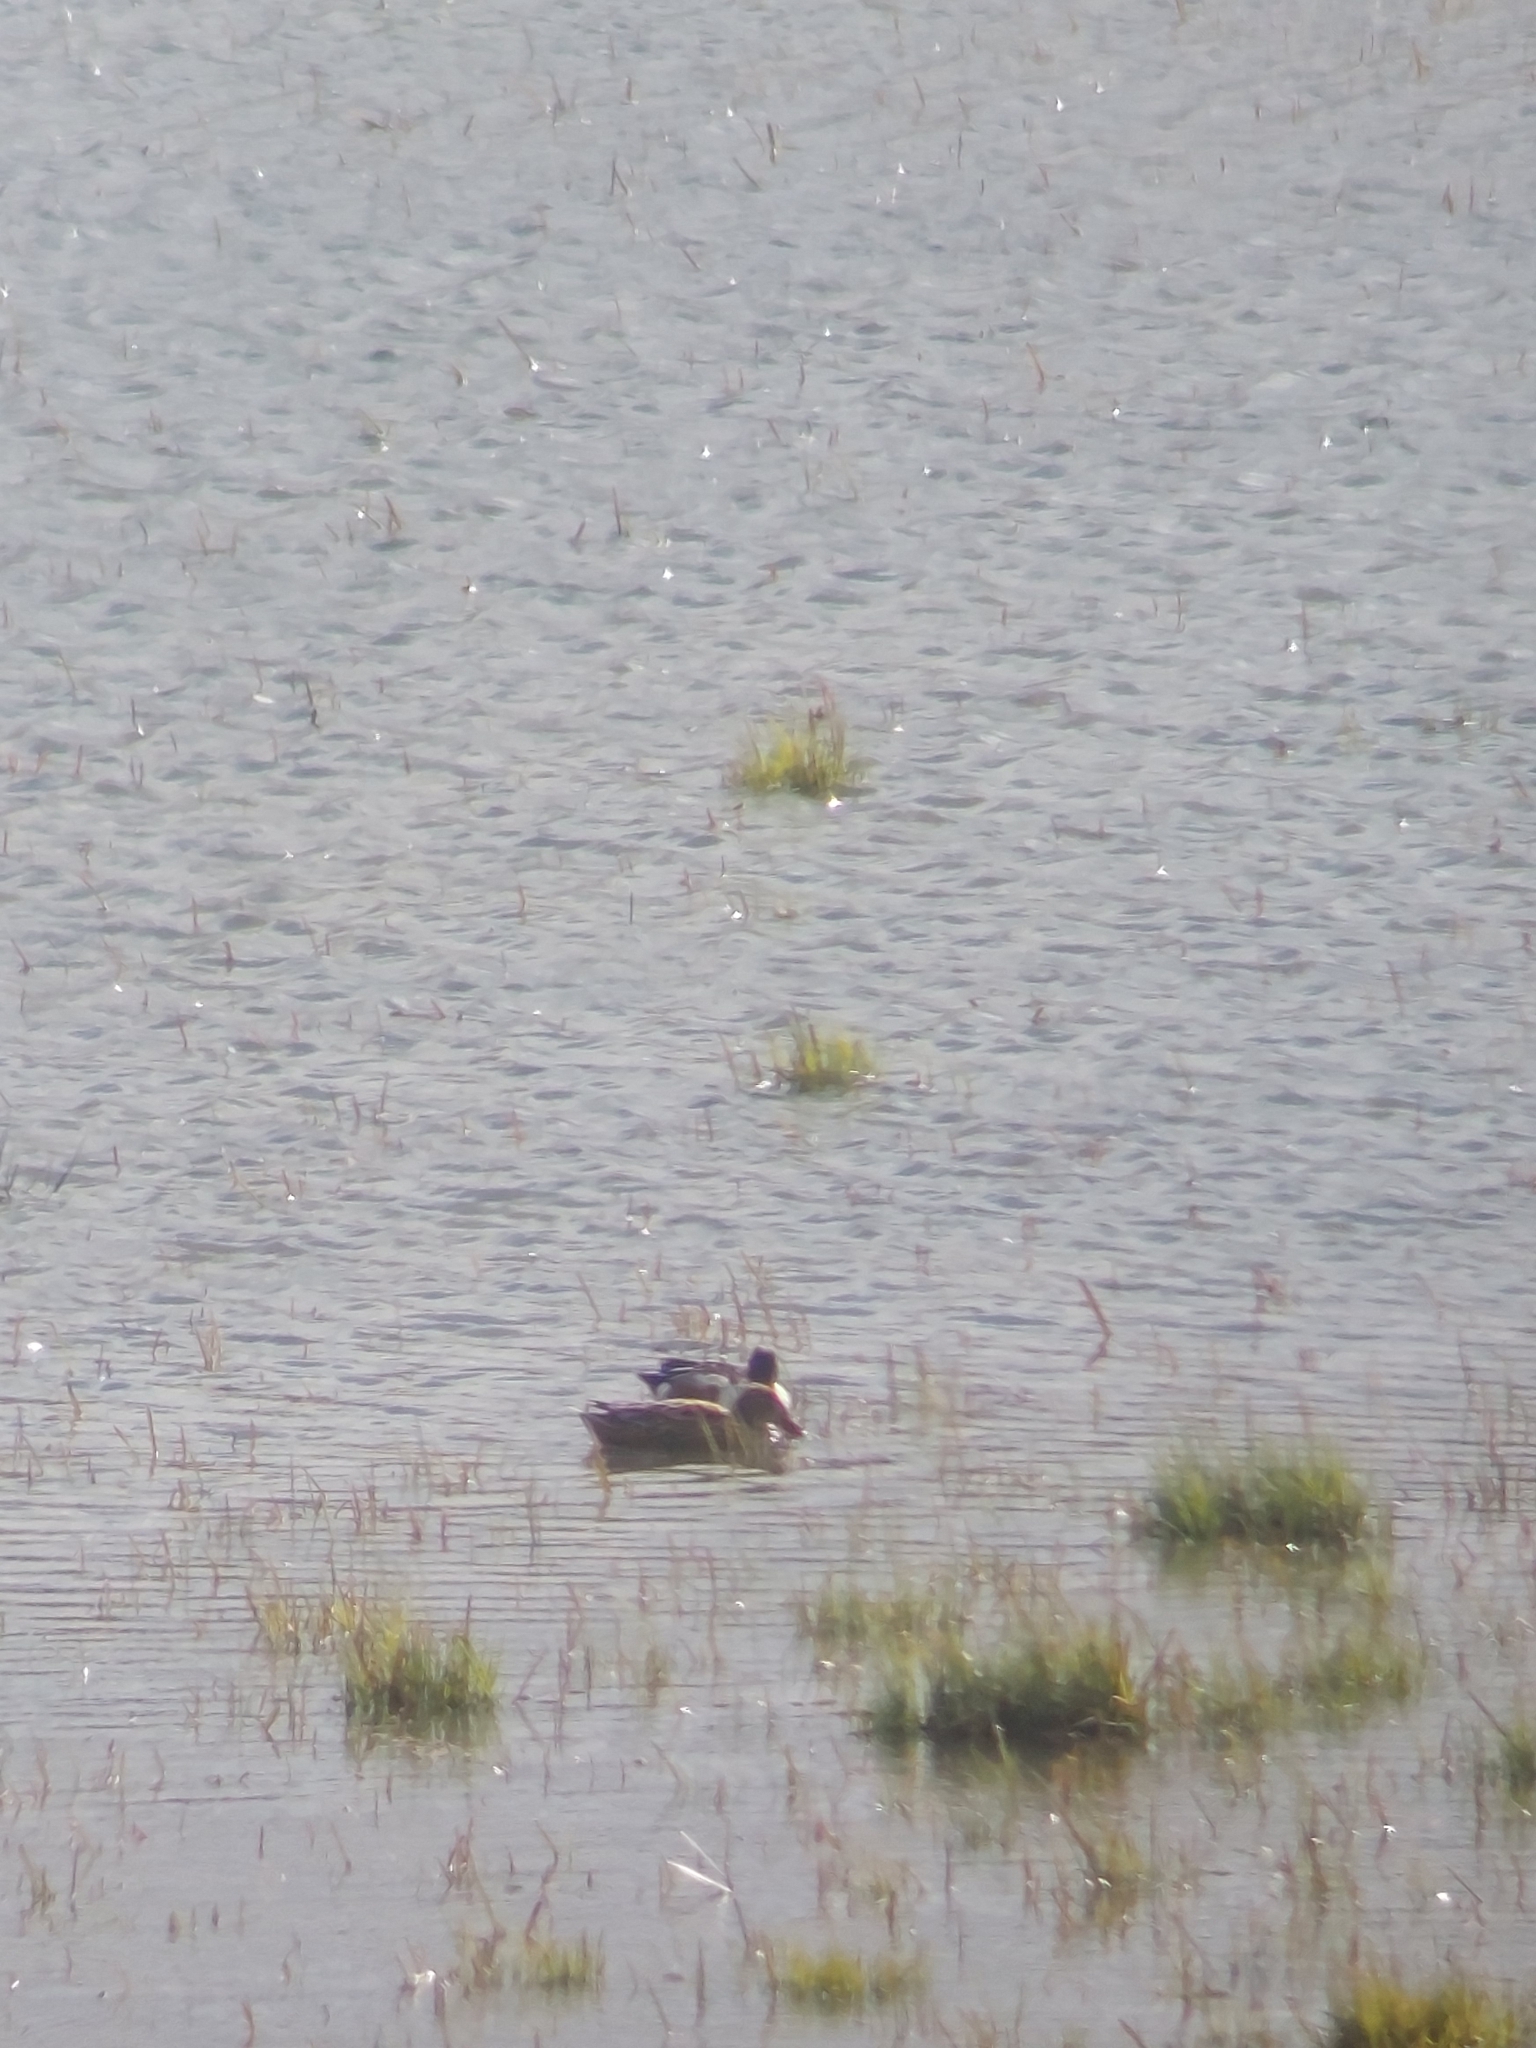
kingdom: Animalia
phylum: Chordata
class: Aves
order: Anseriformes
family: Anatidae
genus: Spatula
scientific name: Spatula clypeata
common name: Northern shoveler
